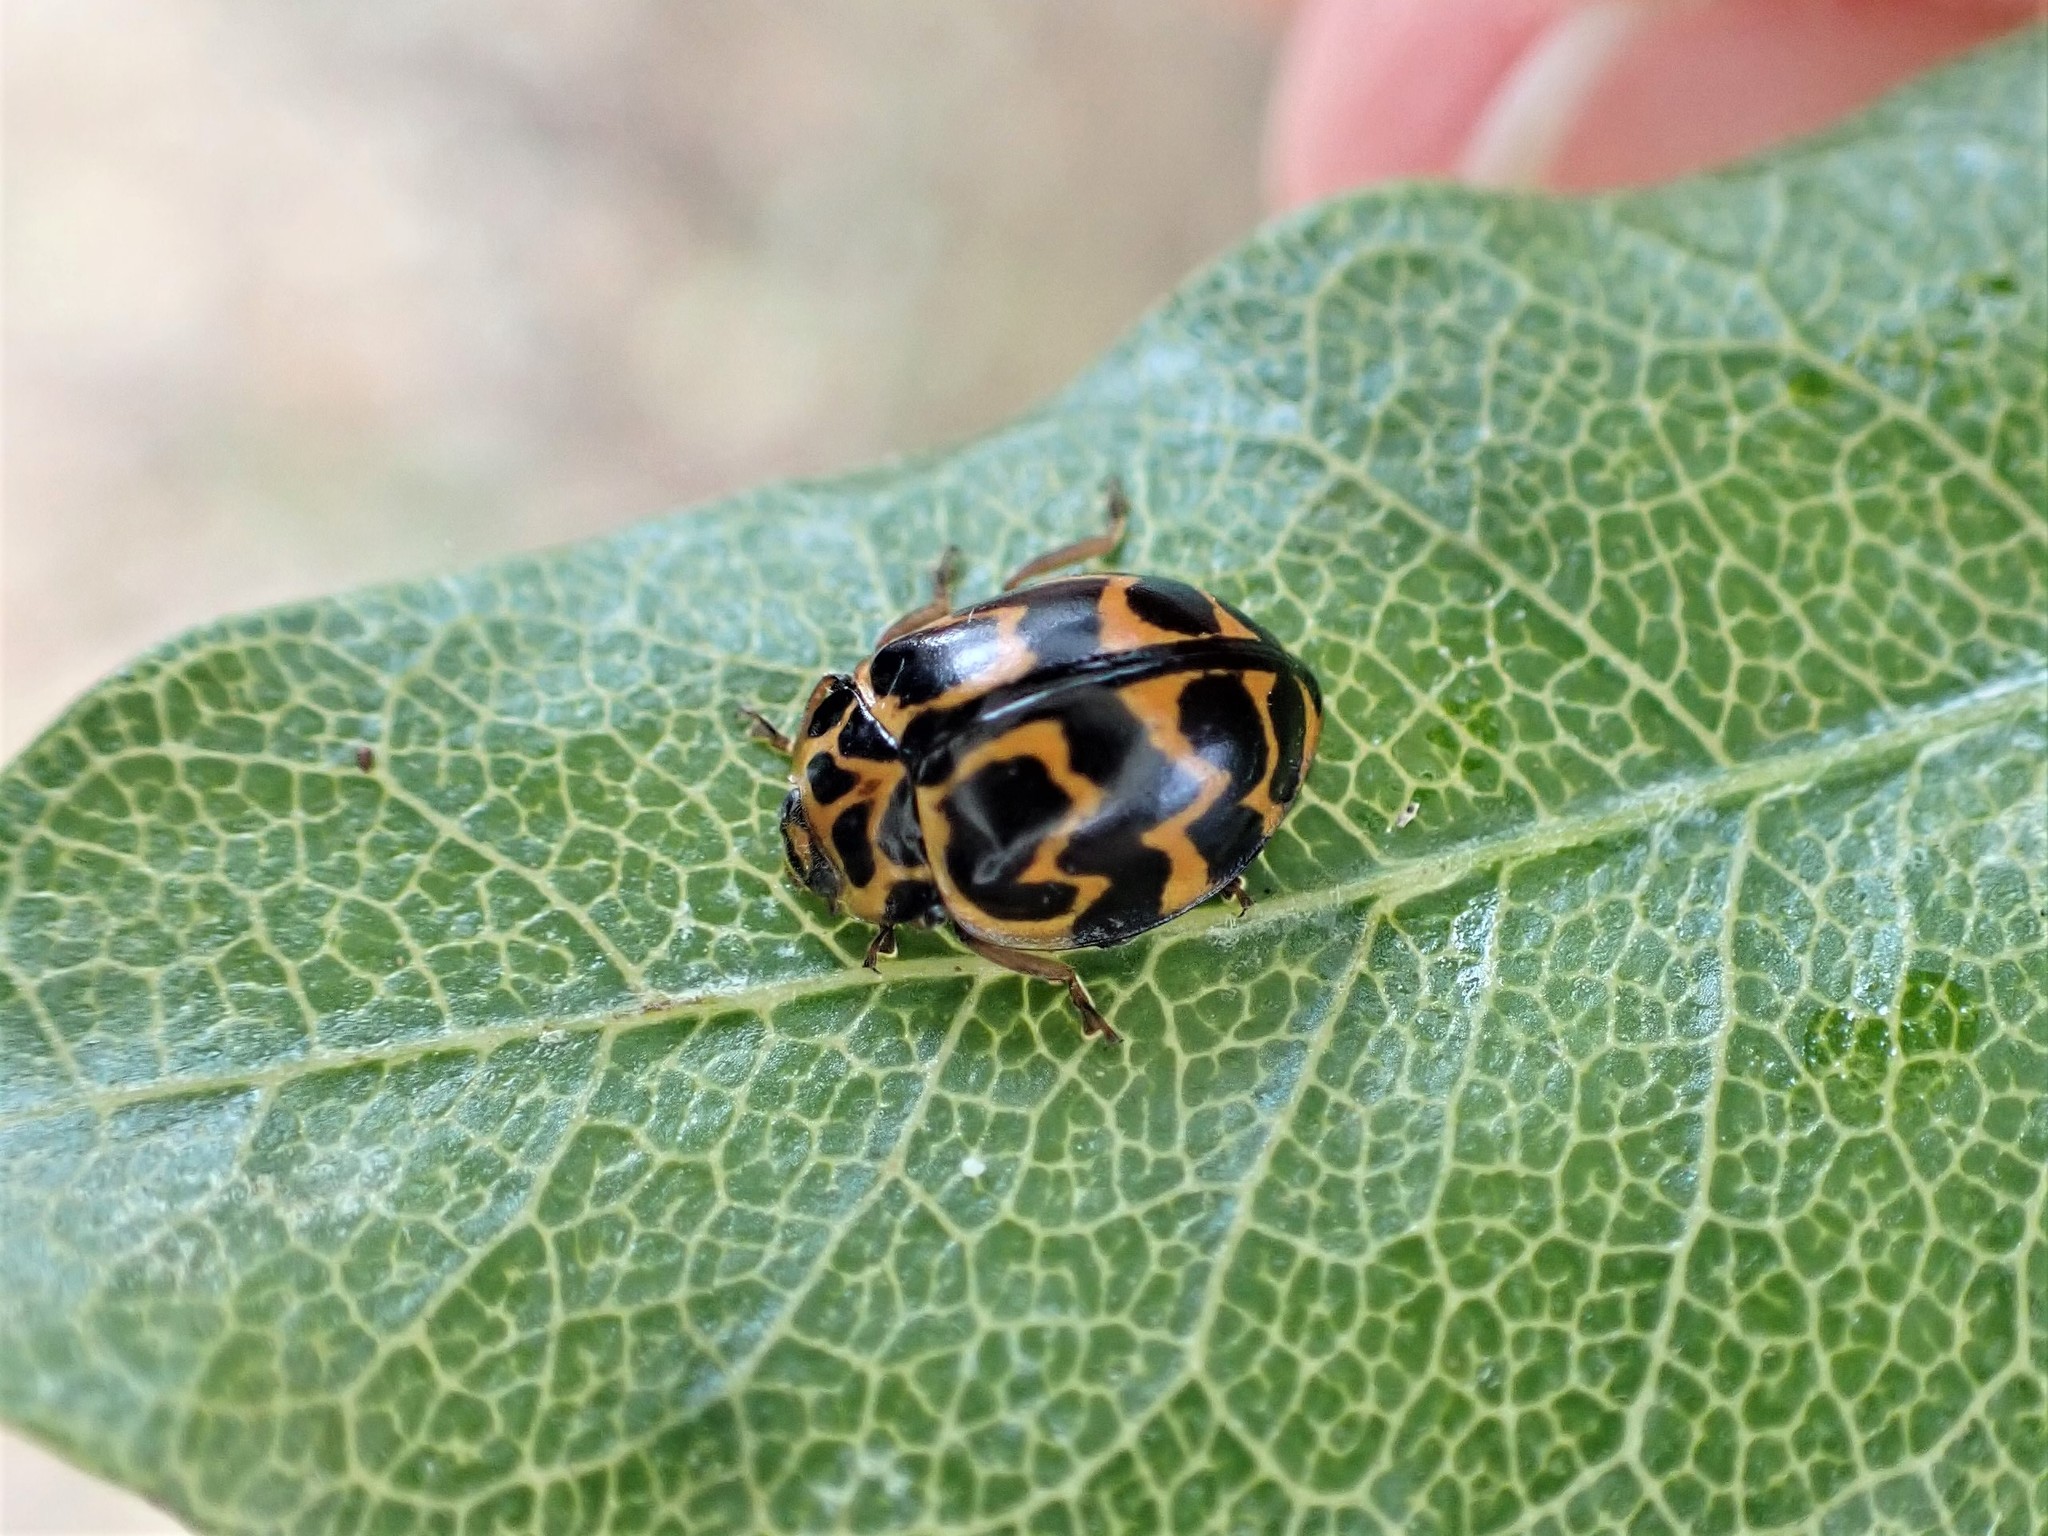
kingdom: Animalia
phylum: Arthropoda
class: Insecta
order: Coleoptera
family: Coccinellidae
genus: Cleobora
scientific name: Cleobora
